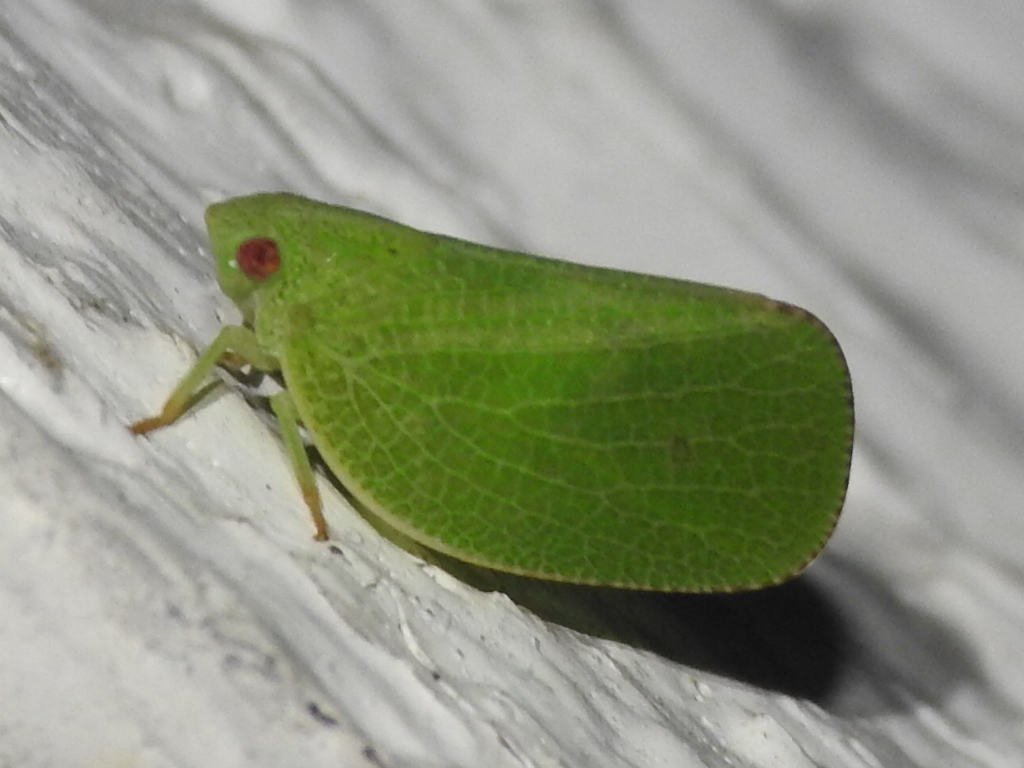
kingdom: Animalia
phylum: Arthropoda
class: Insecta
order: Hemiptera
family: Acanaloniidae
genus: Acanalonia
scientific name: Acanalonia conica
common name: Green cone-headed planthopper
